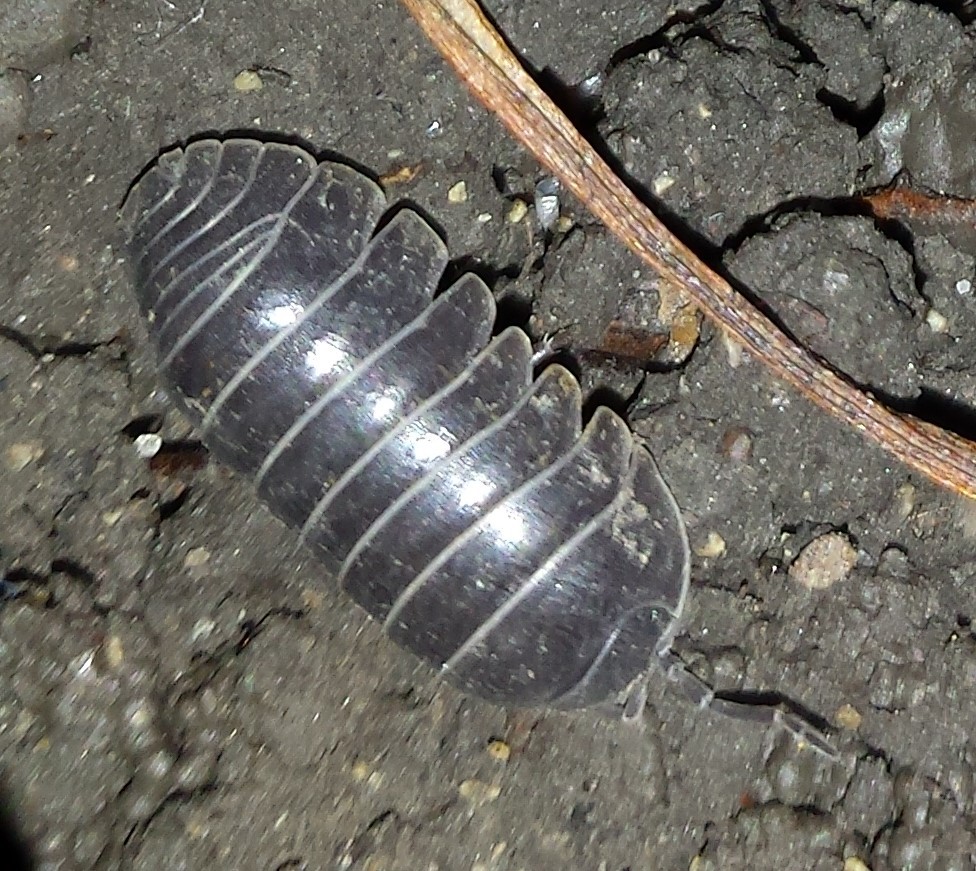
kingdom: Animalia
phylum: Arthropoda
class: Malacostraca
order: Isopoda
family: Armadillidiidae
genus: Armadillidium
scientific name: Armadillidium vulgare
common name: Common pill woodlouse
